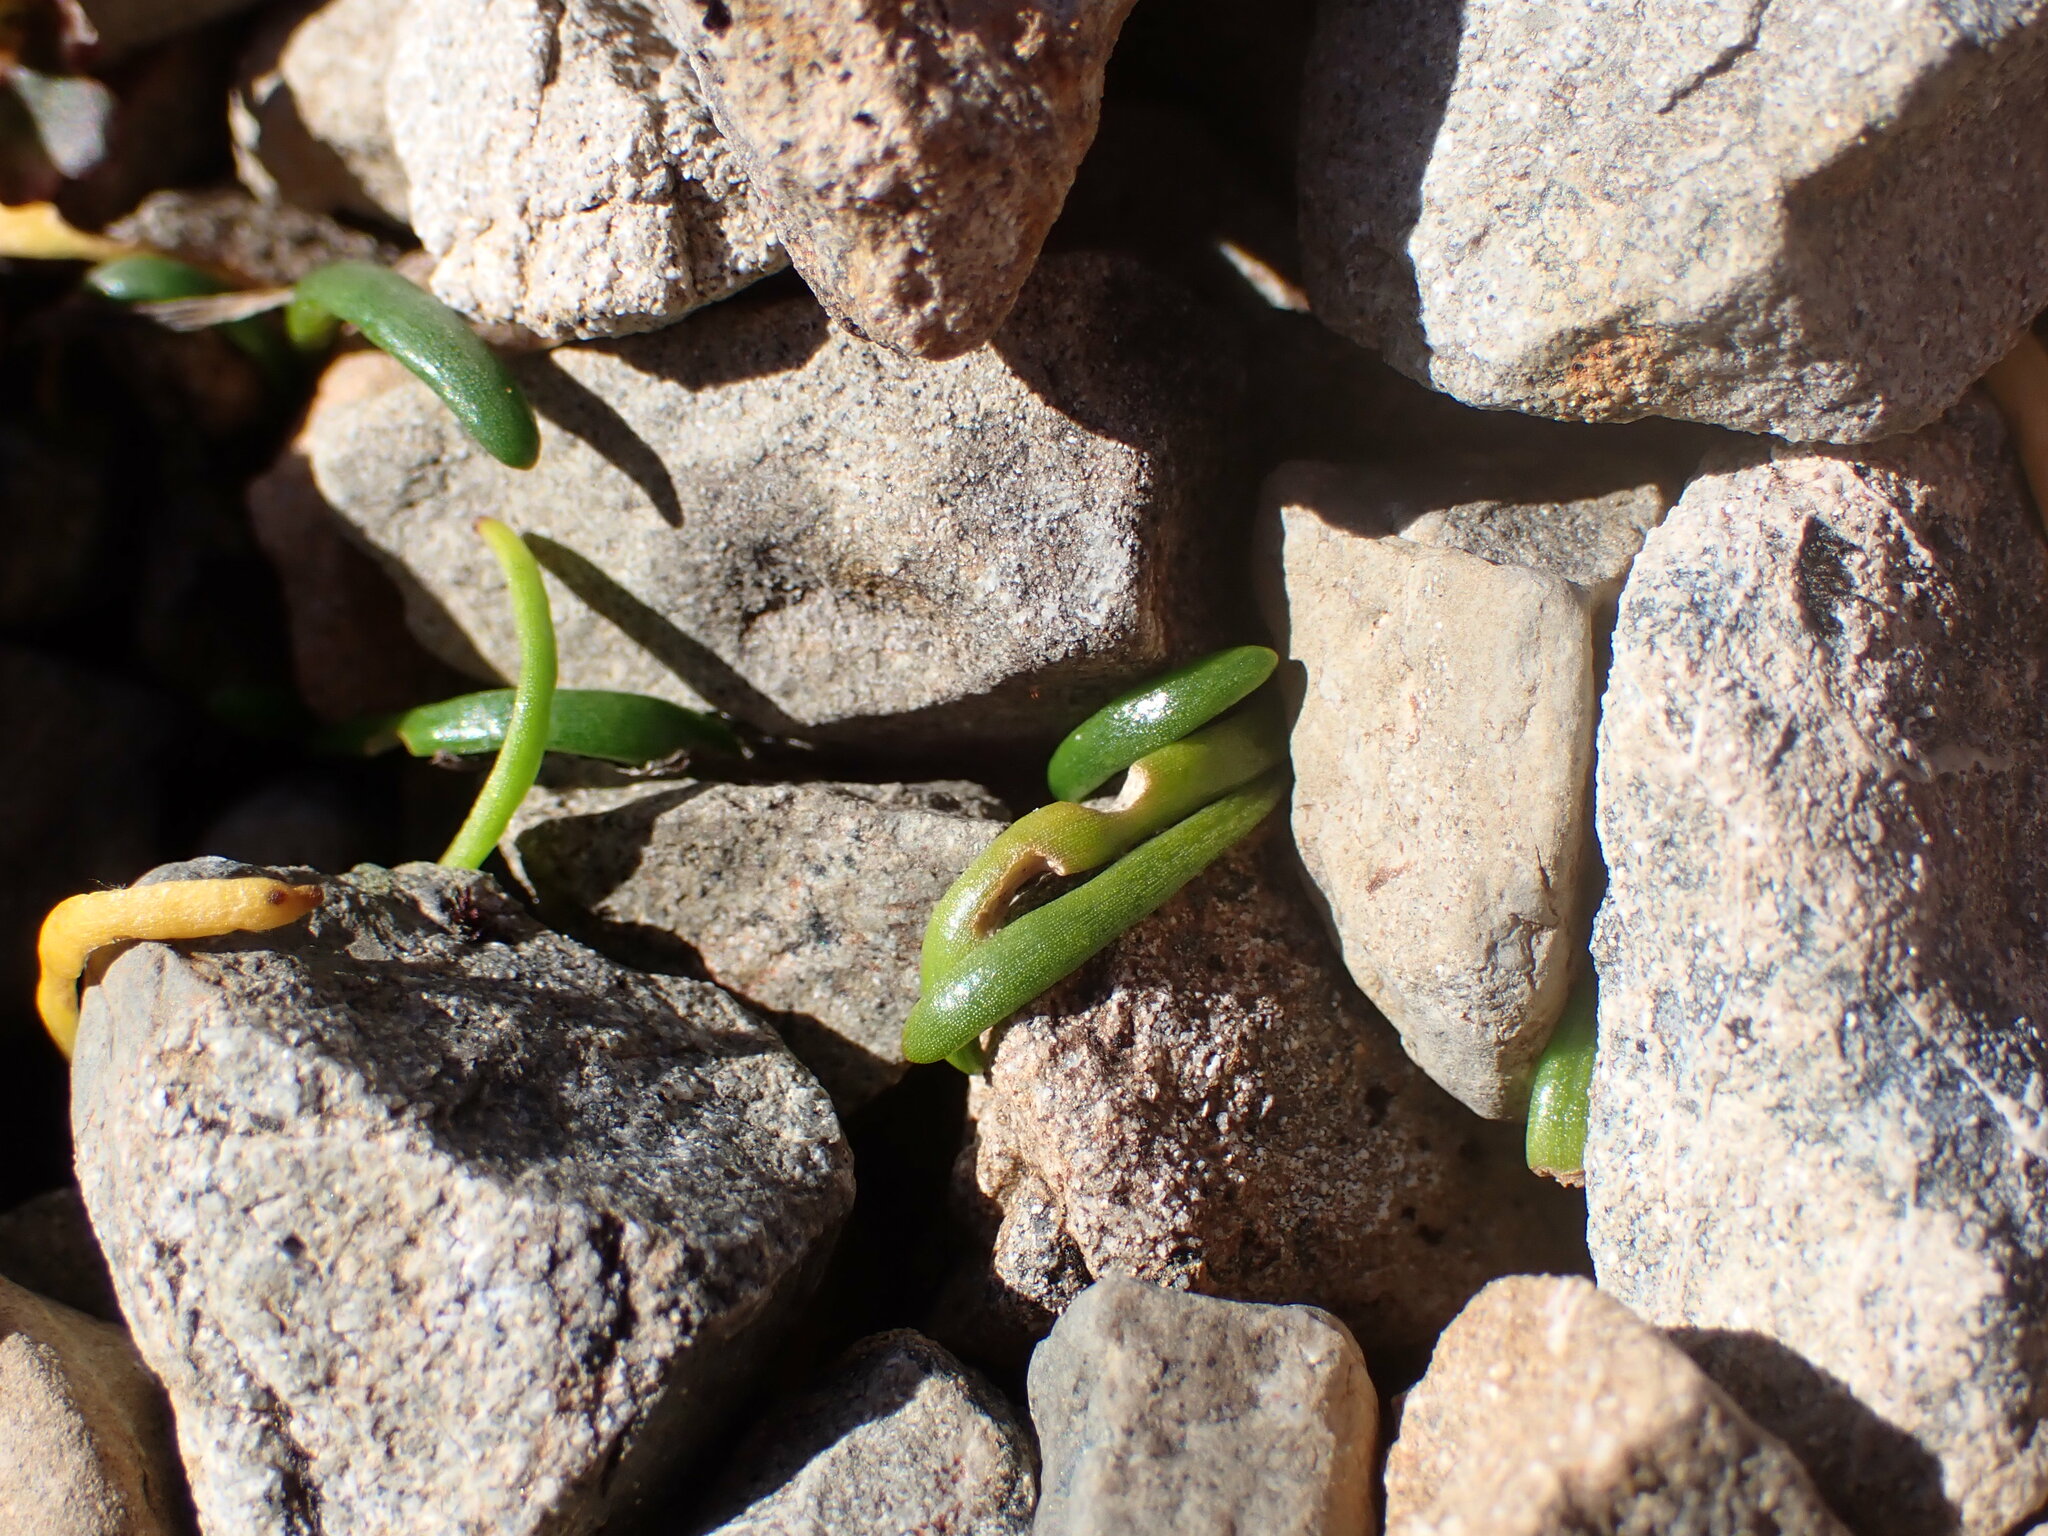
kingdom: Plantae
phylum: Tracheophyta
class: Magnoliopsida
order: Caryophyllales
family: Montiaceae
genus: Montia
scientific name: Montia calycina
